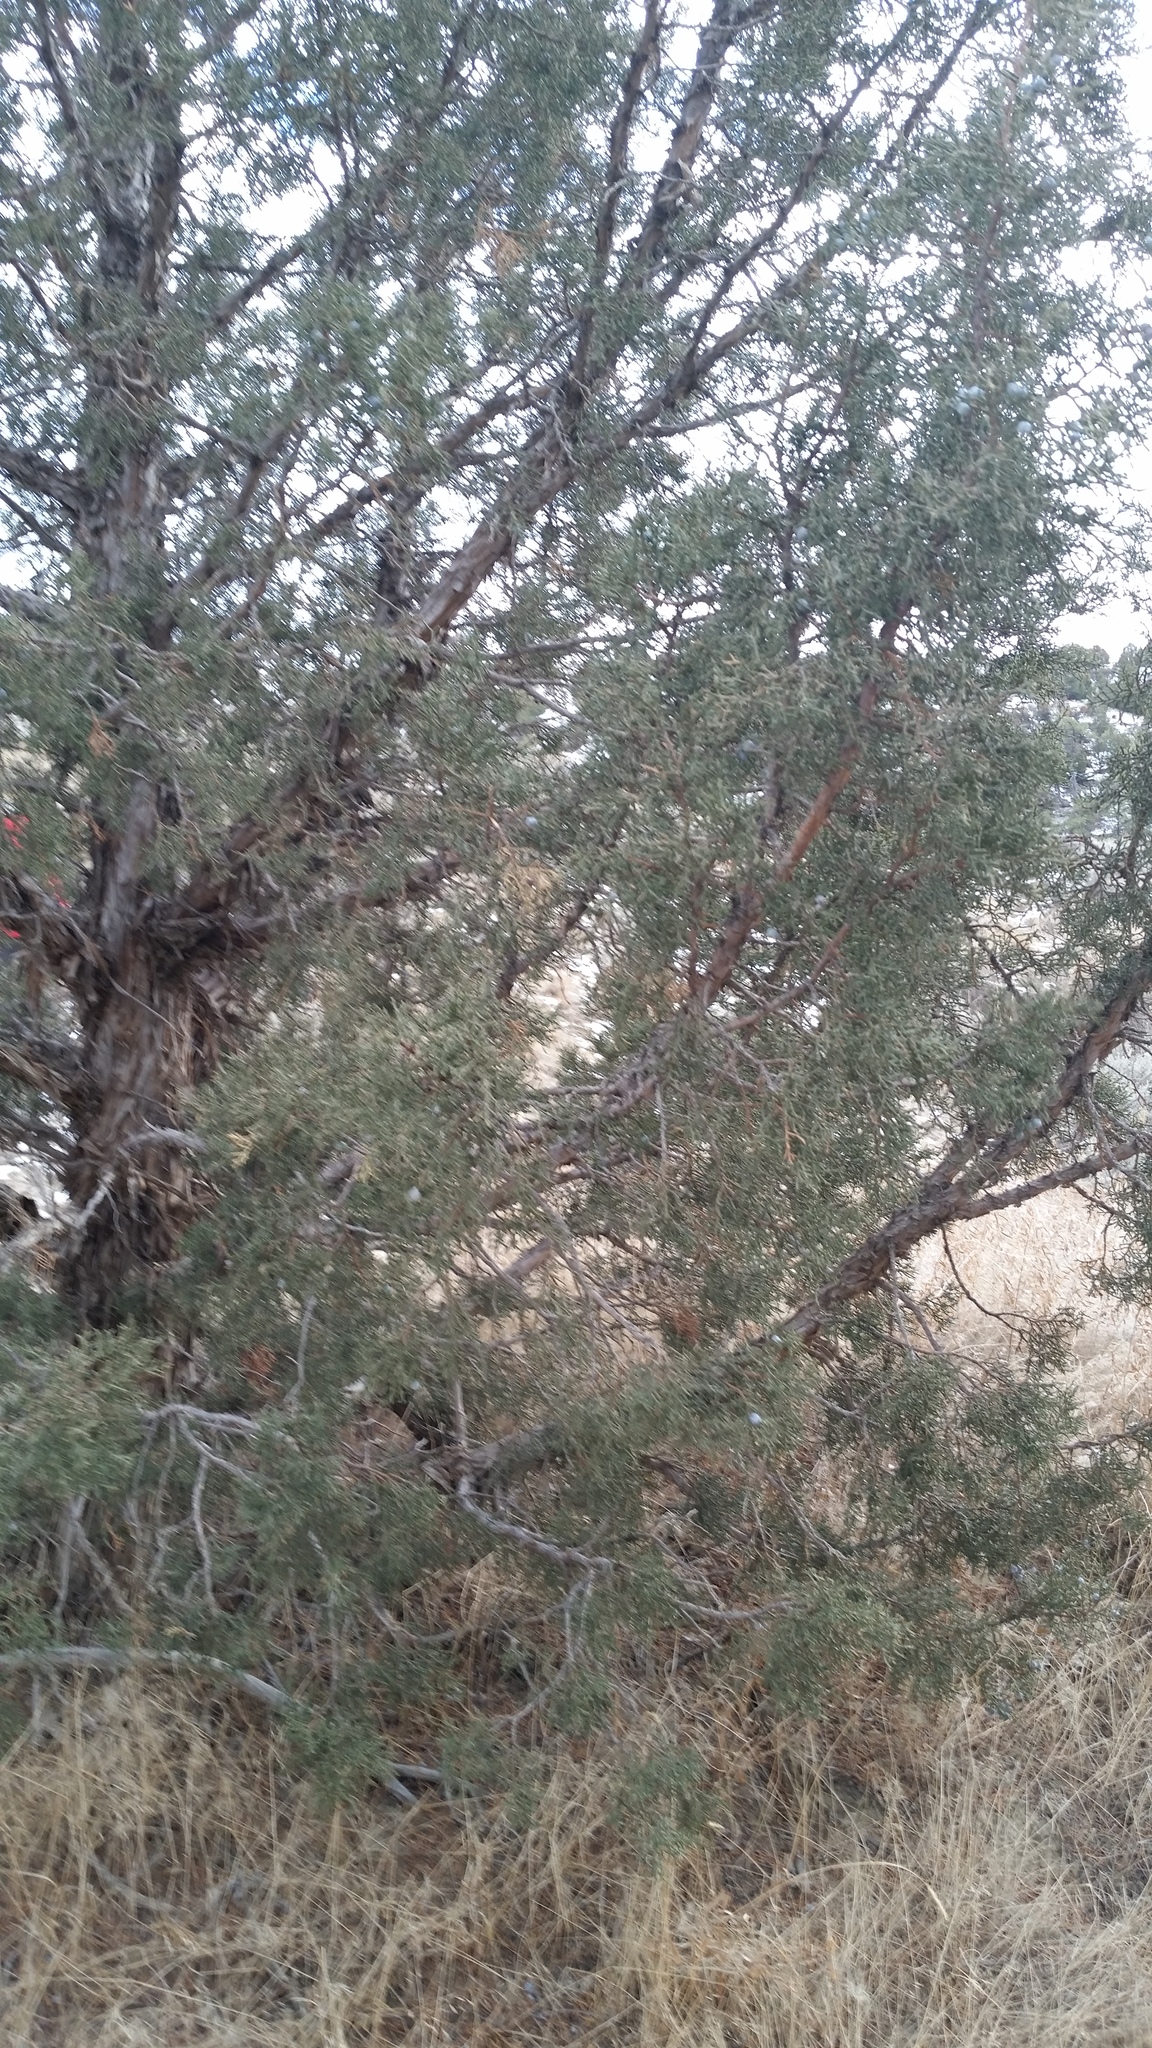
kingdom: Plantae
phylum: Tracheophyta
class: Pinopsida
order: Pinales
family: Cupressaceae
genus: Juniperus
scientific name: Juniperus osteosperma
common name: Utah juniper
